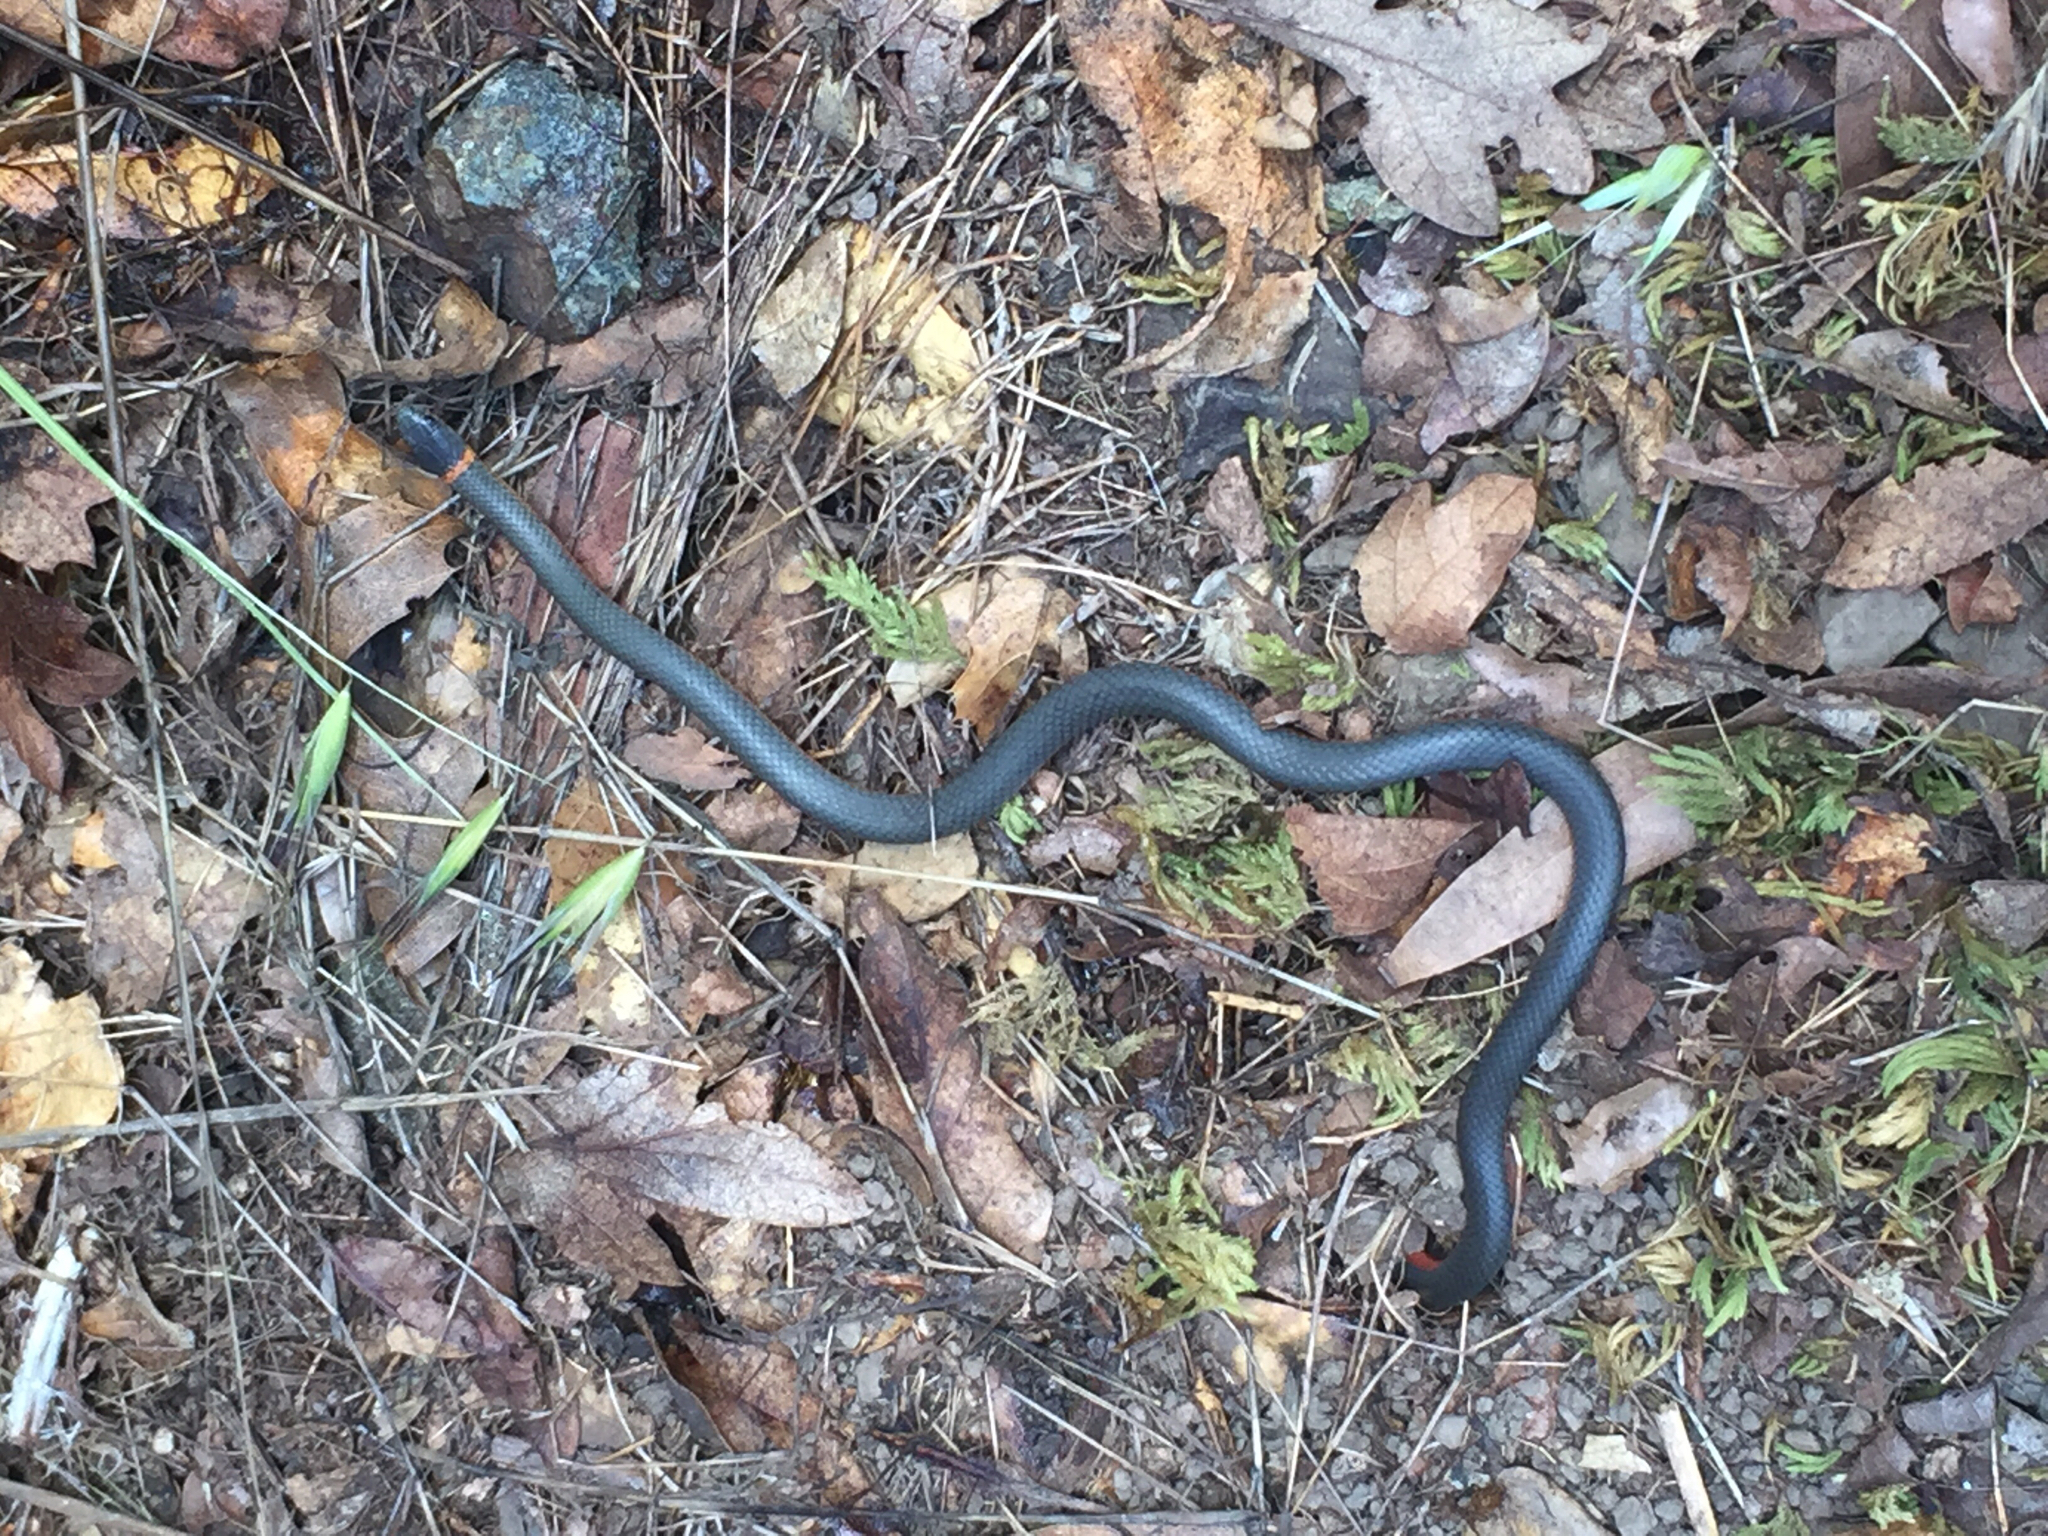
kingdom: Animalia
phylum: Chordata
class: Squamata
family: Colubridae
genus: Diadophis
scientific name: Diadophis punctatus
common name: Ringneck snake
